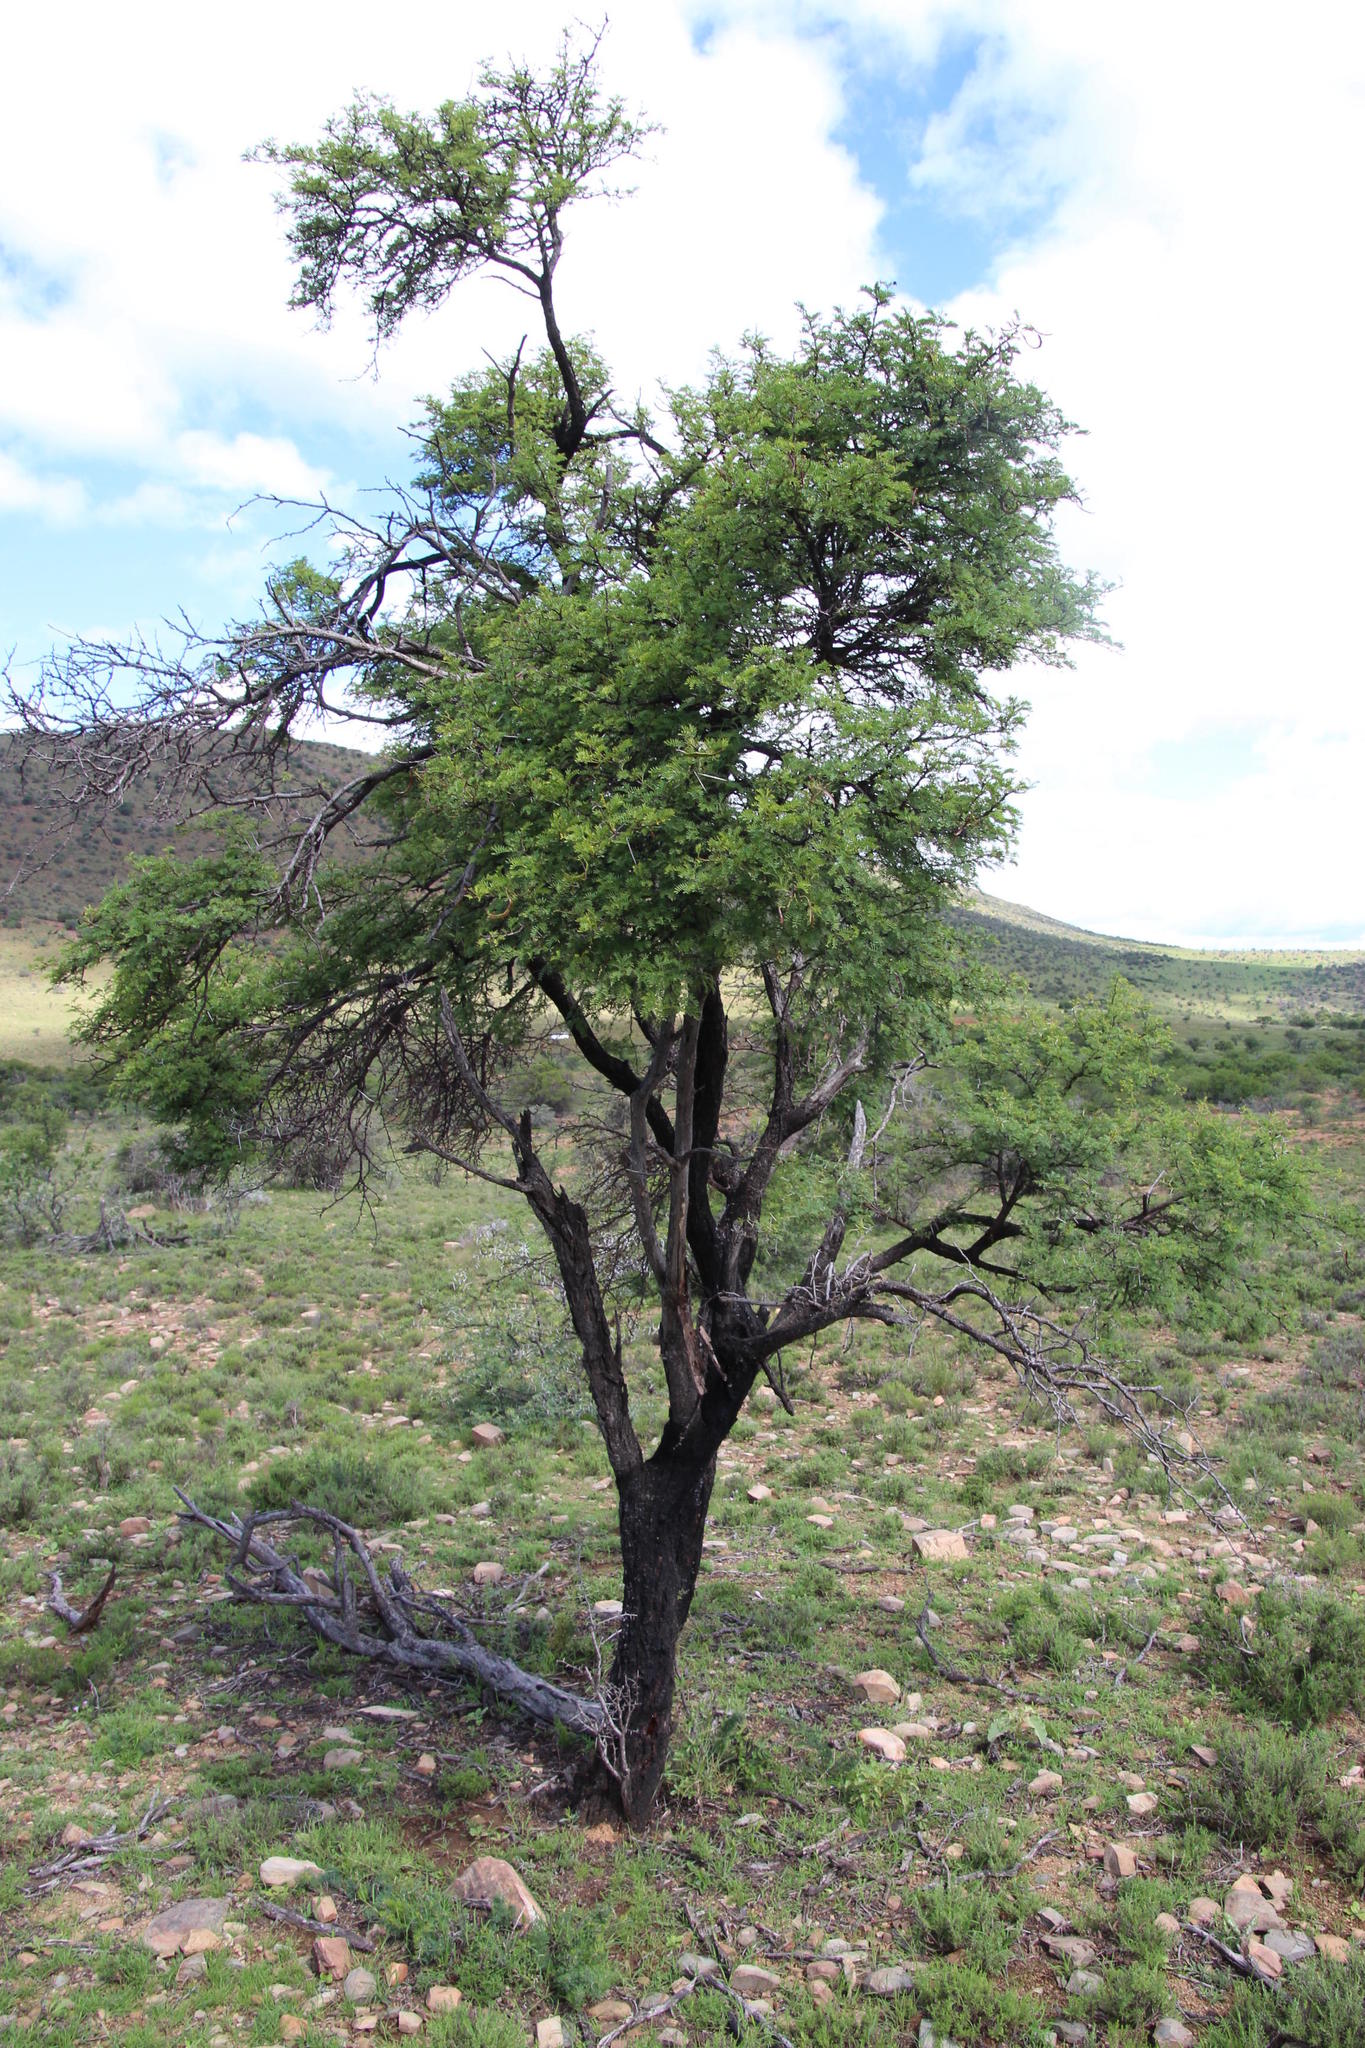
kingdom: Plantae
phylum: Tracheophyta
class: Magnoliopsida
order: Fabales
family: Fabaceae
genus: Vachellia
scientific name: Vachellia karroo
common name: Sweet thorn
